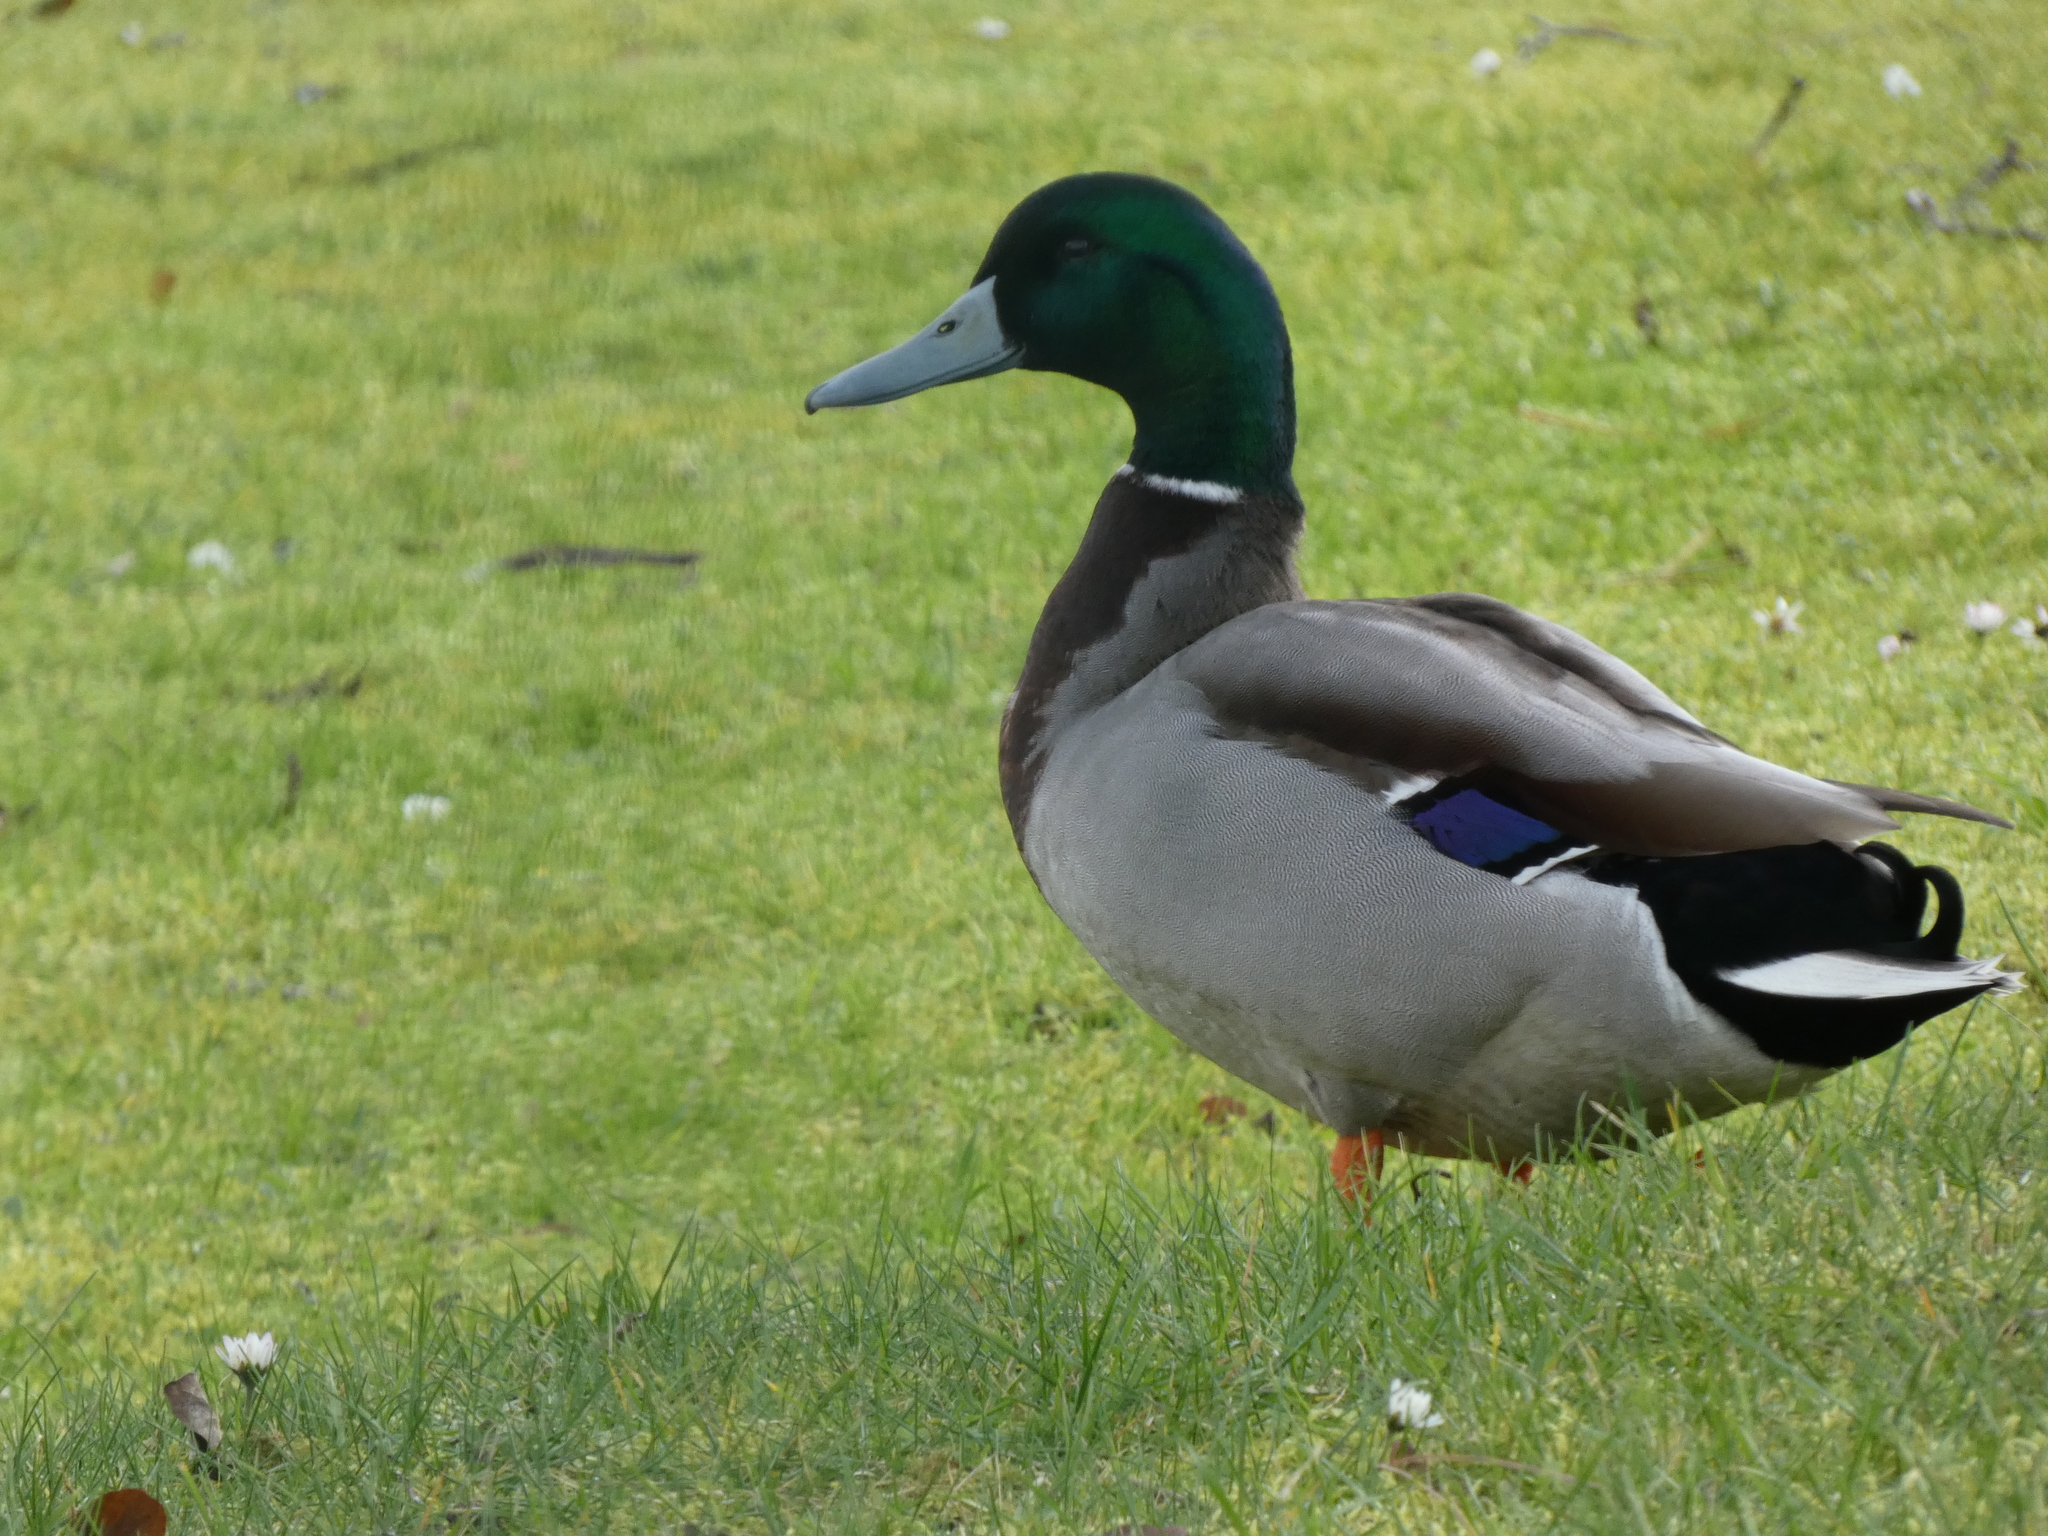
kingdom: Animalia
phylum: Chordata
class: Aves
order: Anseriformes
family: Anatidae
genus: Anas
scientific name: Anas platyrhynchos
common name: Mallard
